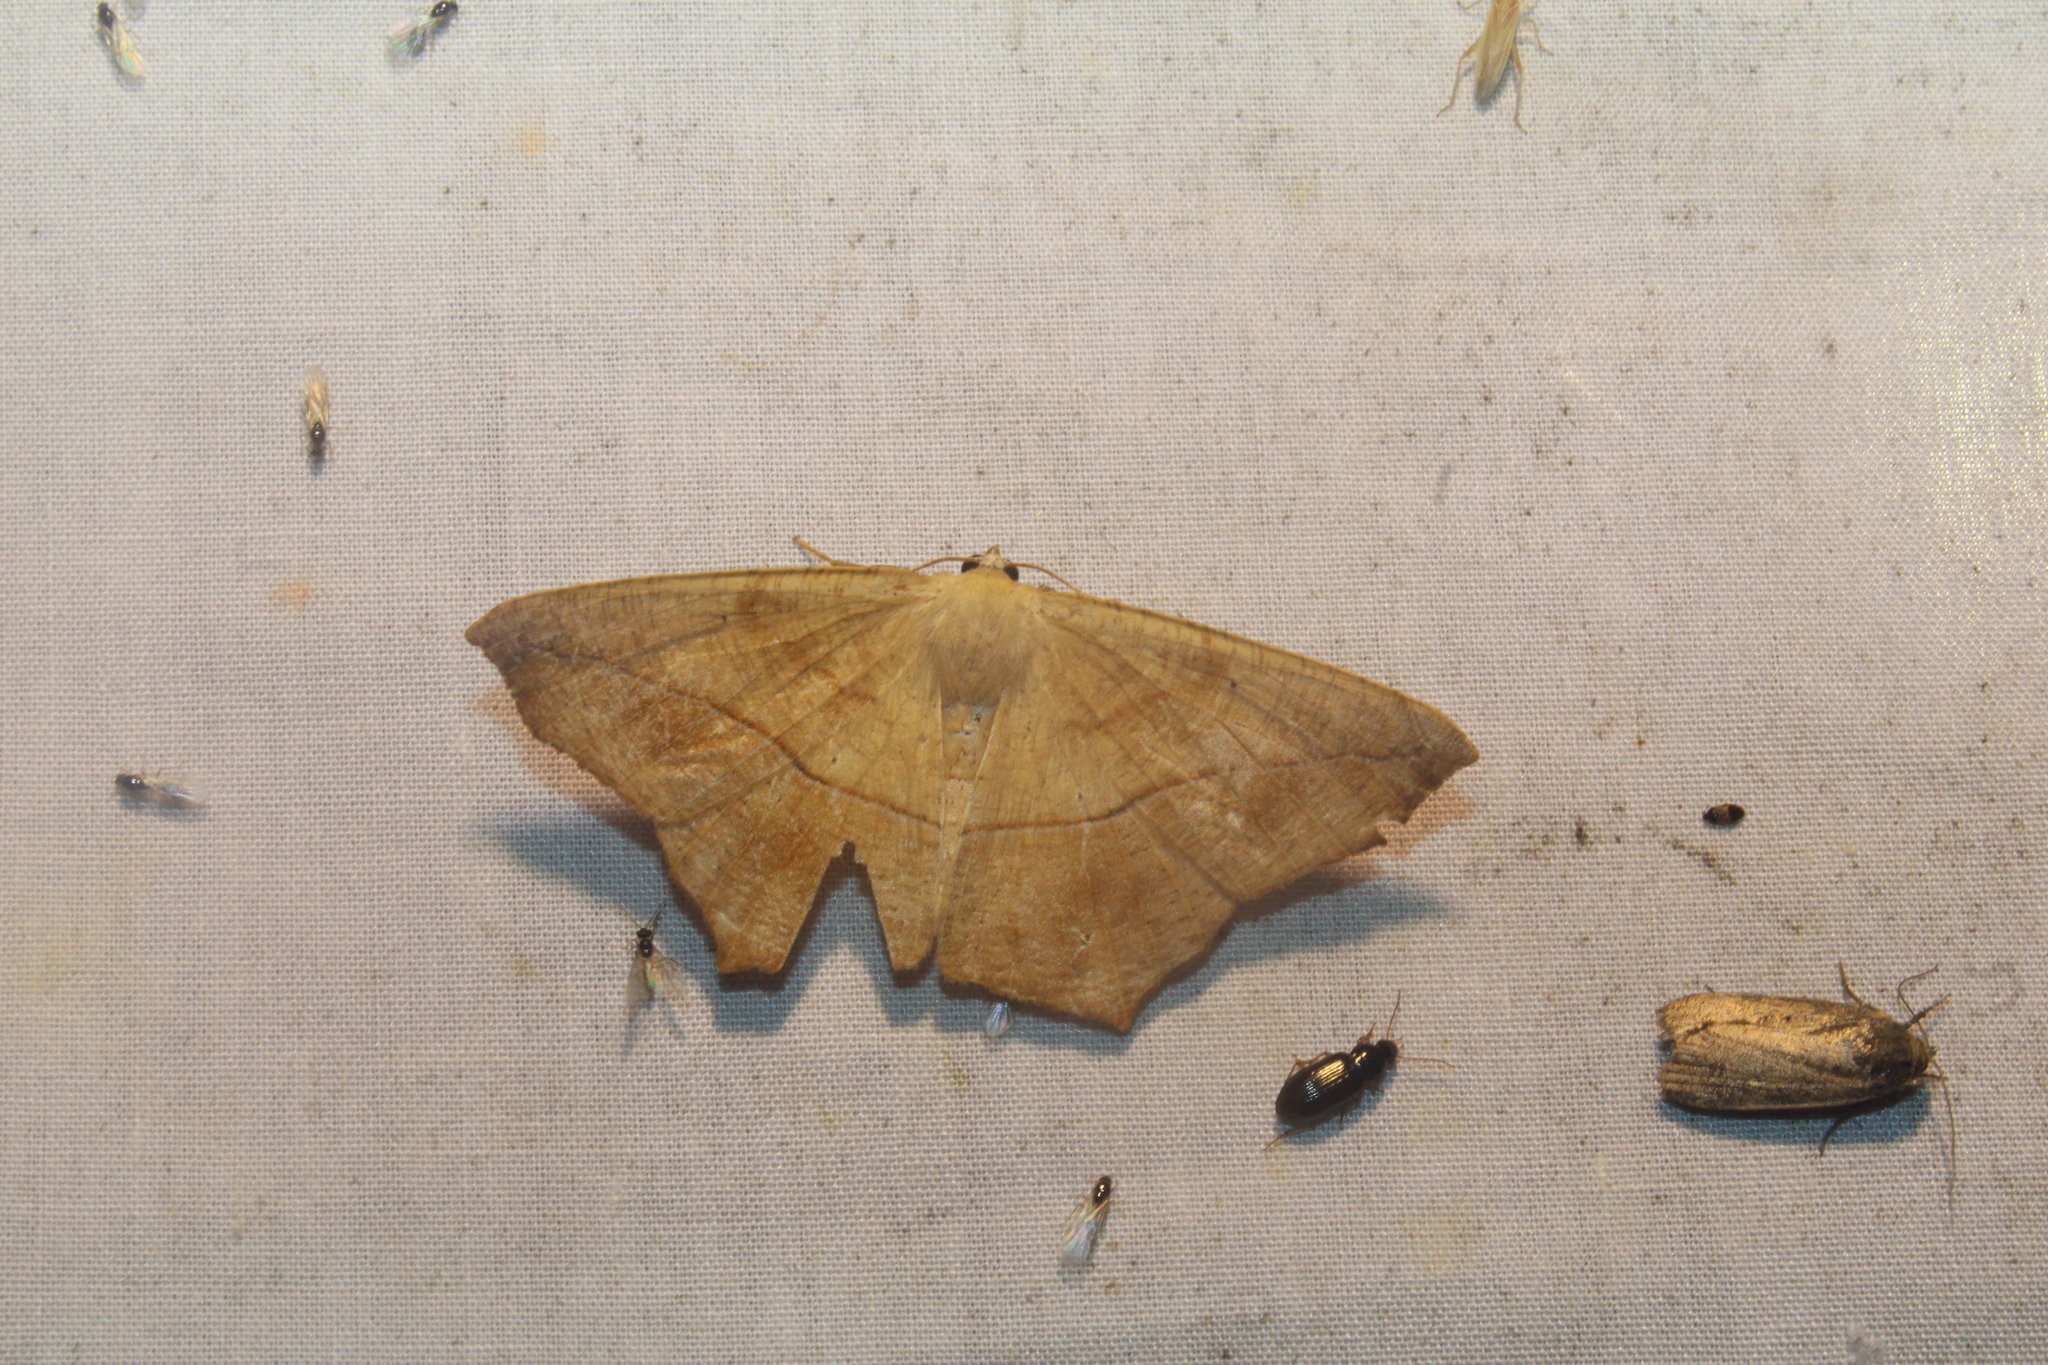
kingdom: Animalia
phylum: Arthropoda
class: Insecta
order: Lepidoptera
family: Geometridae
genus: Prochoerodes
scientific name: Prochoerodes lineola
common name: Large maple spanworm
